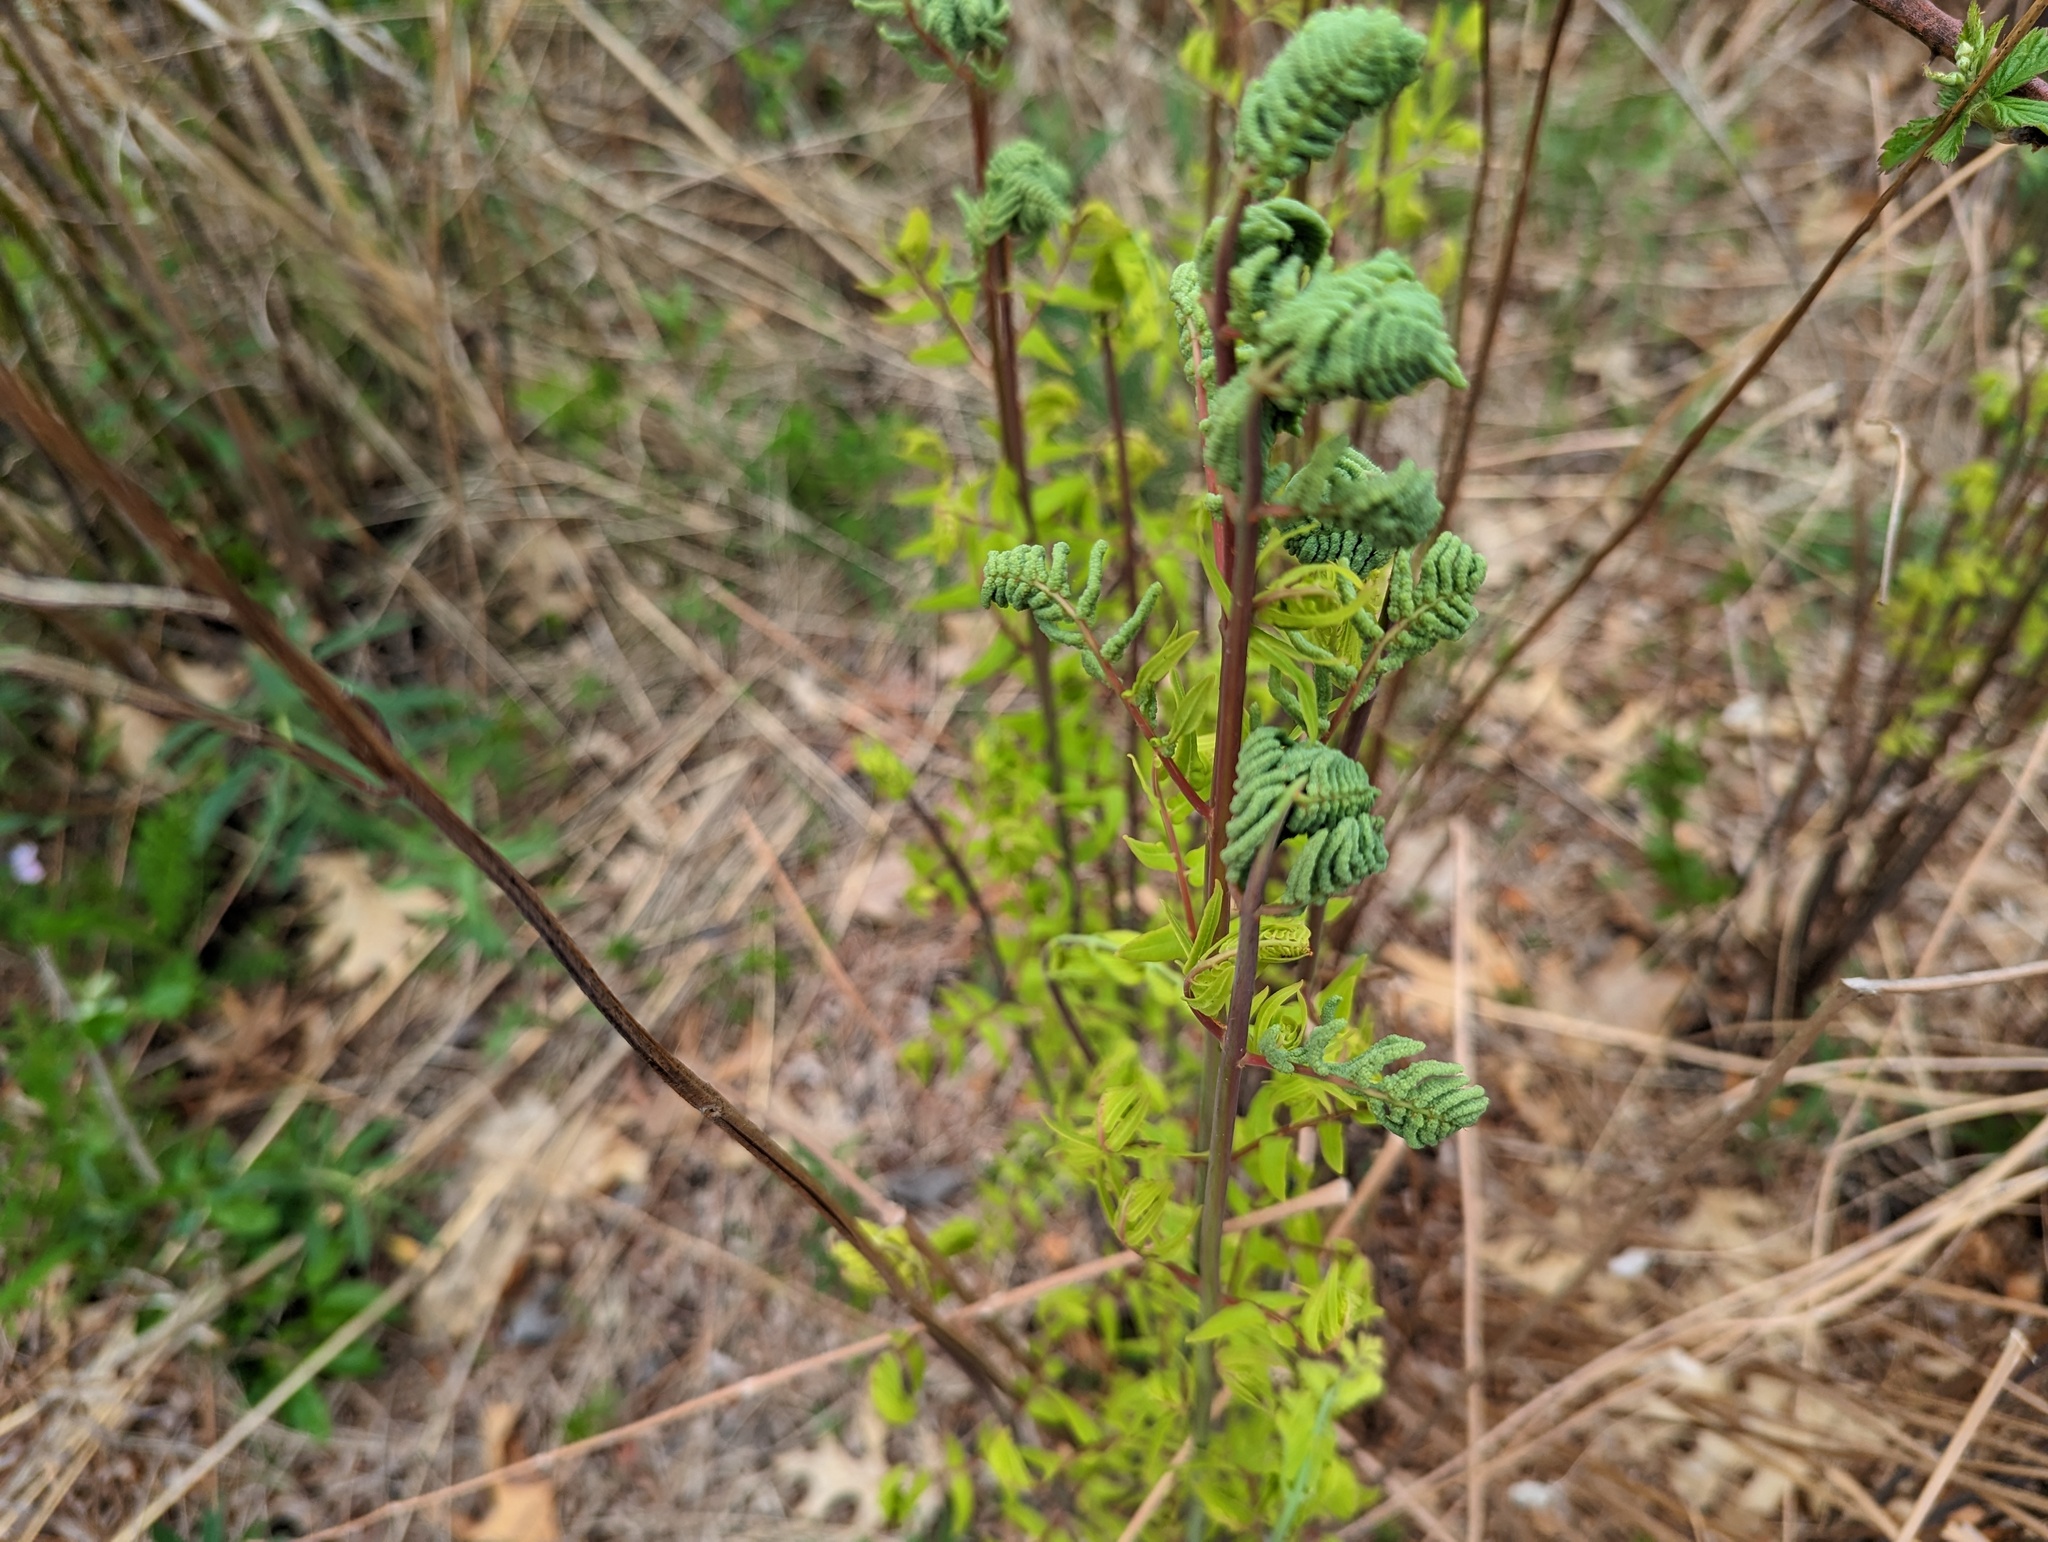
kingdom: Plantae
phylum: Tracheophyta
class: Polypodiopsida
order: Osmundales
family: Osmundaceae
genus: Osmunda
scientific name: Osmunda spectabilis
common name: American royal fern
